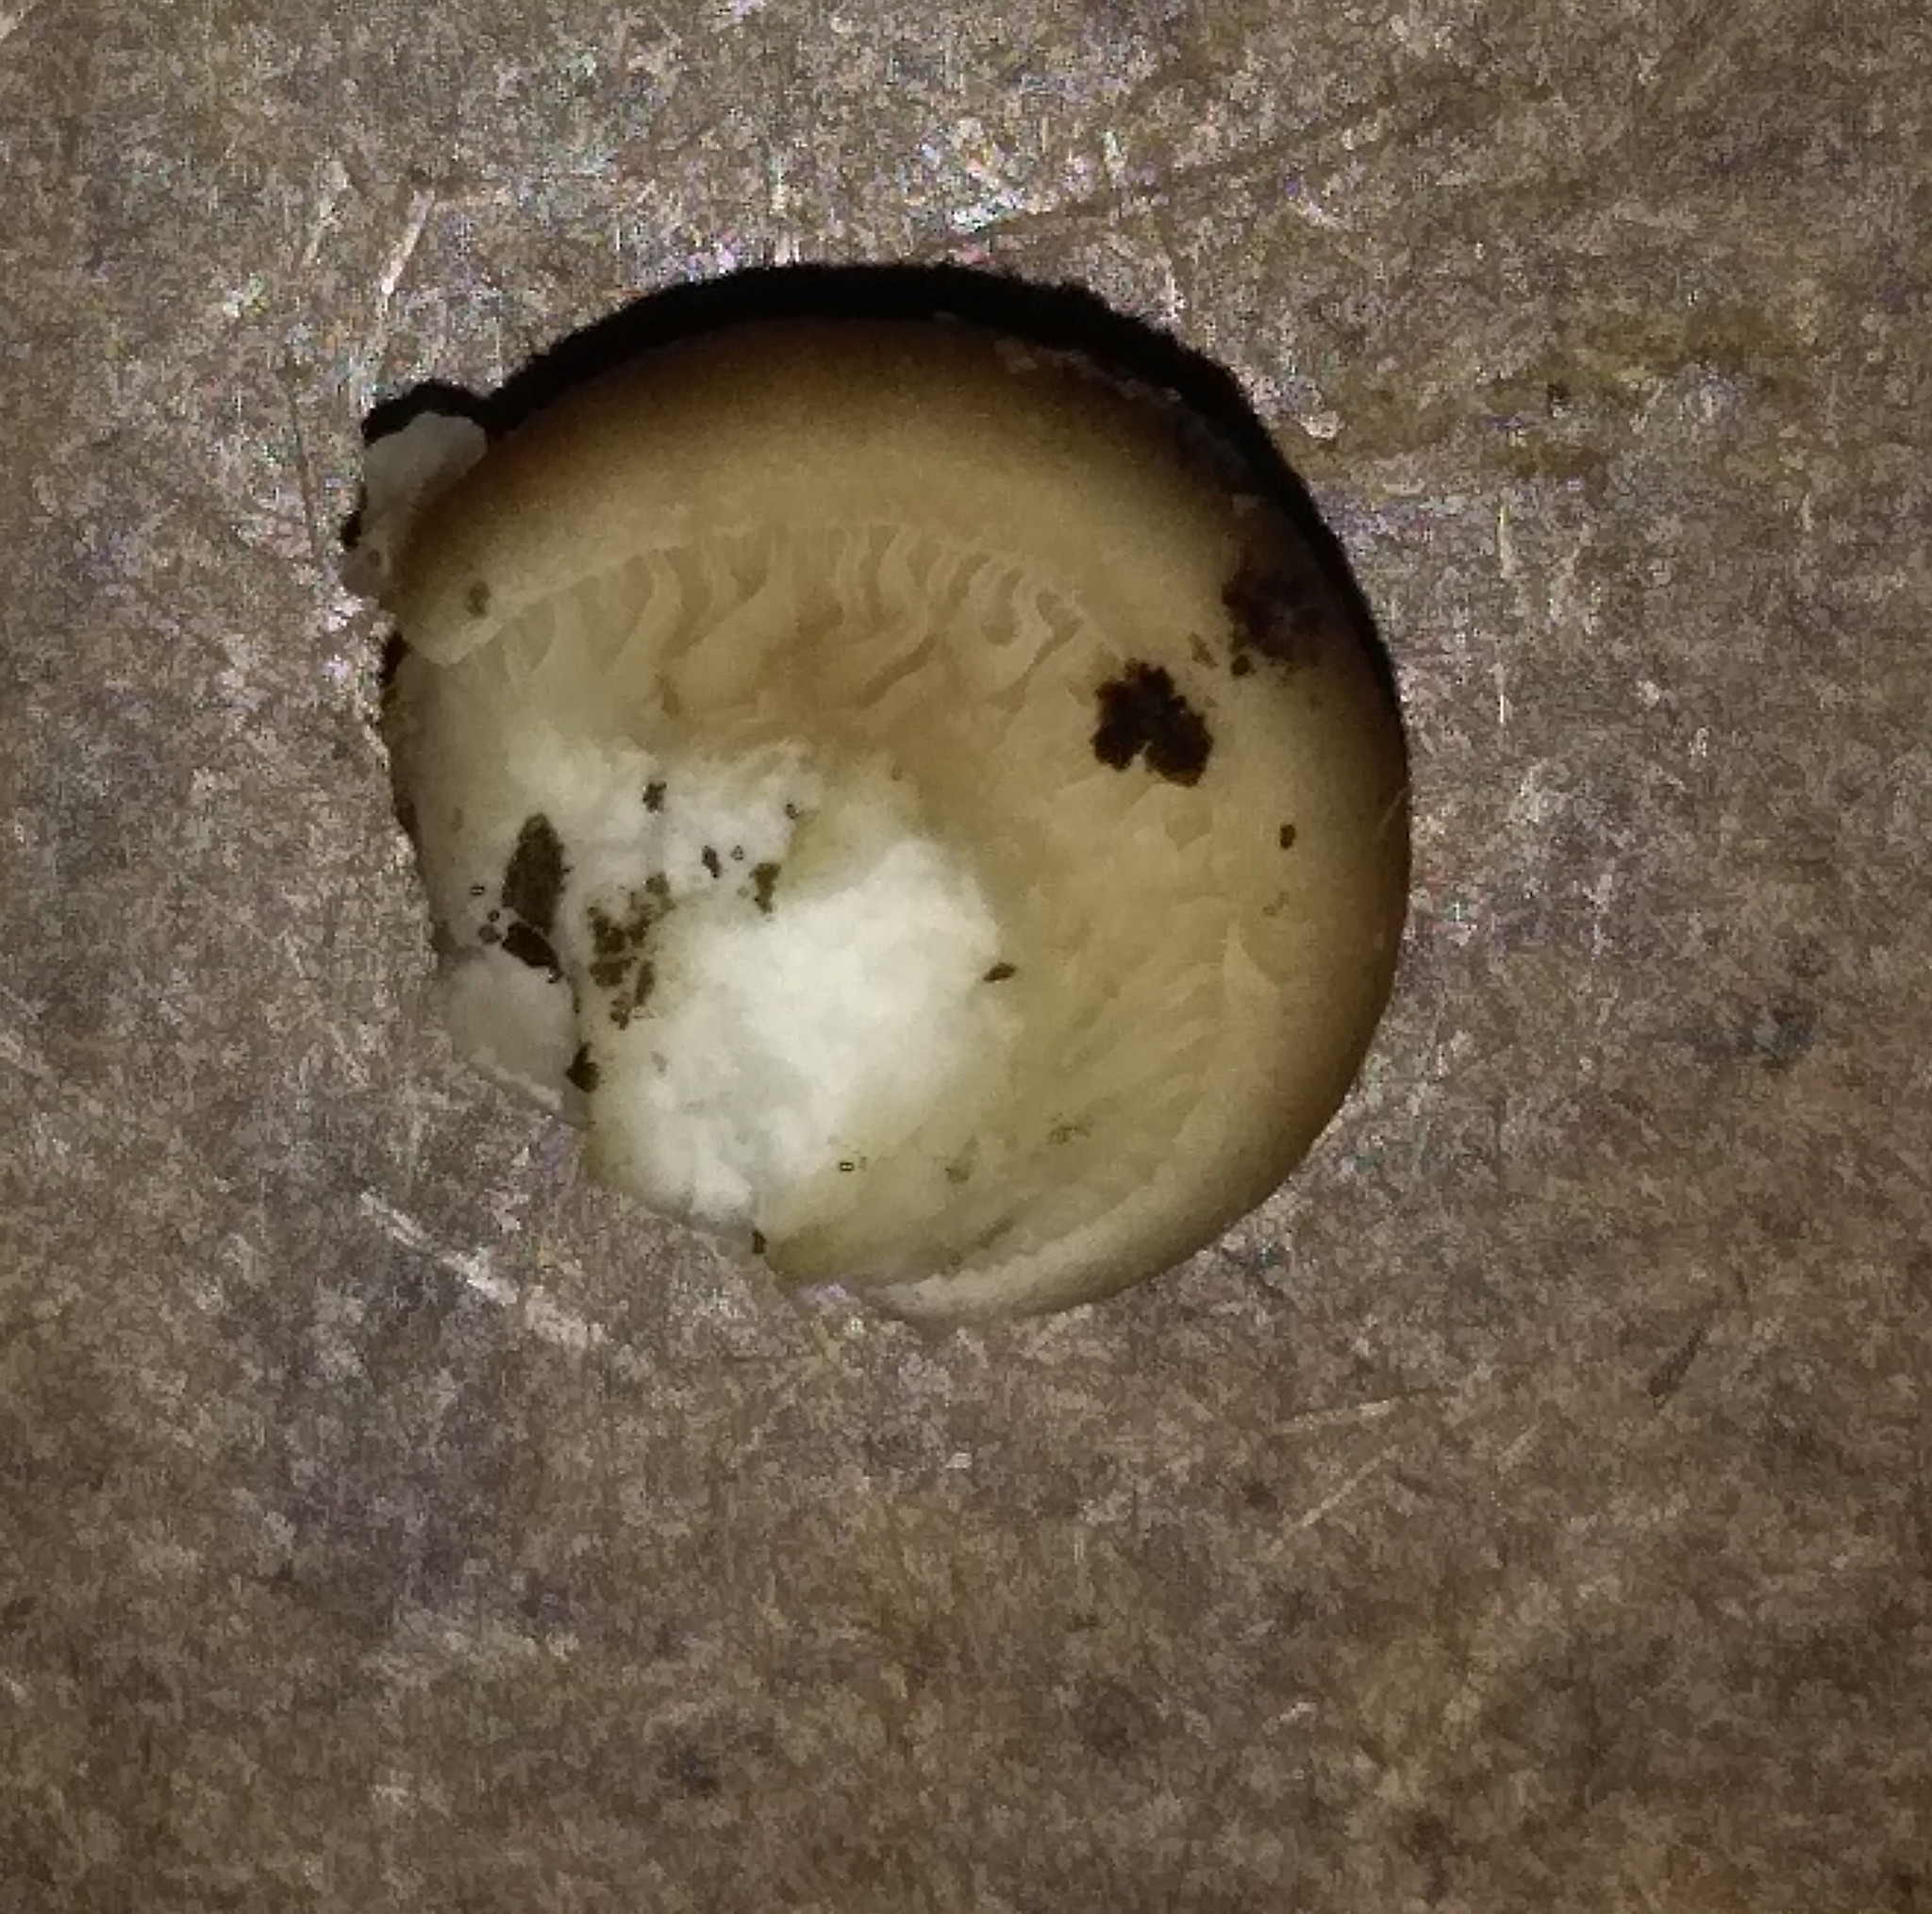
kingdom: Fungi
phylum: Basidiomycota
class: Agaricomycetes
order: Agaricales
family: Pleurotaceae
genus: Pleurotus
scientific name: Pleurotus ostreatus
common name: Oyster mushroom
